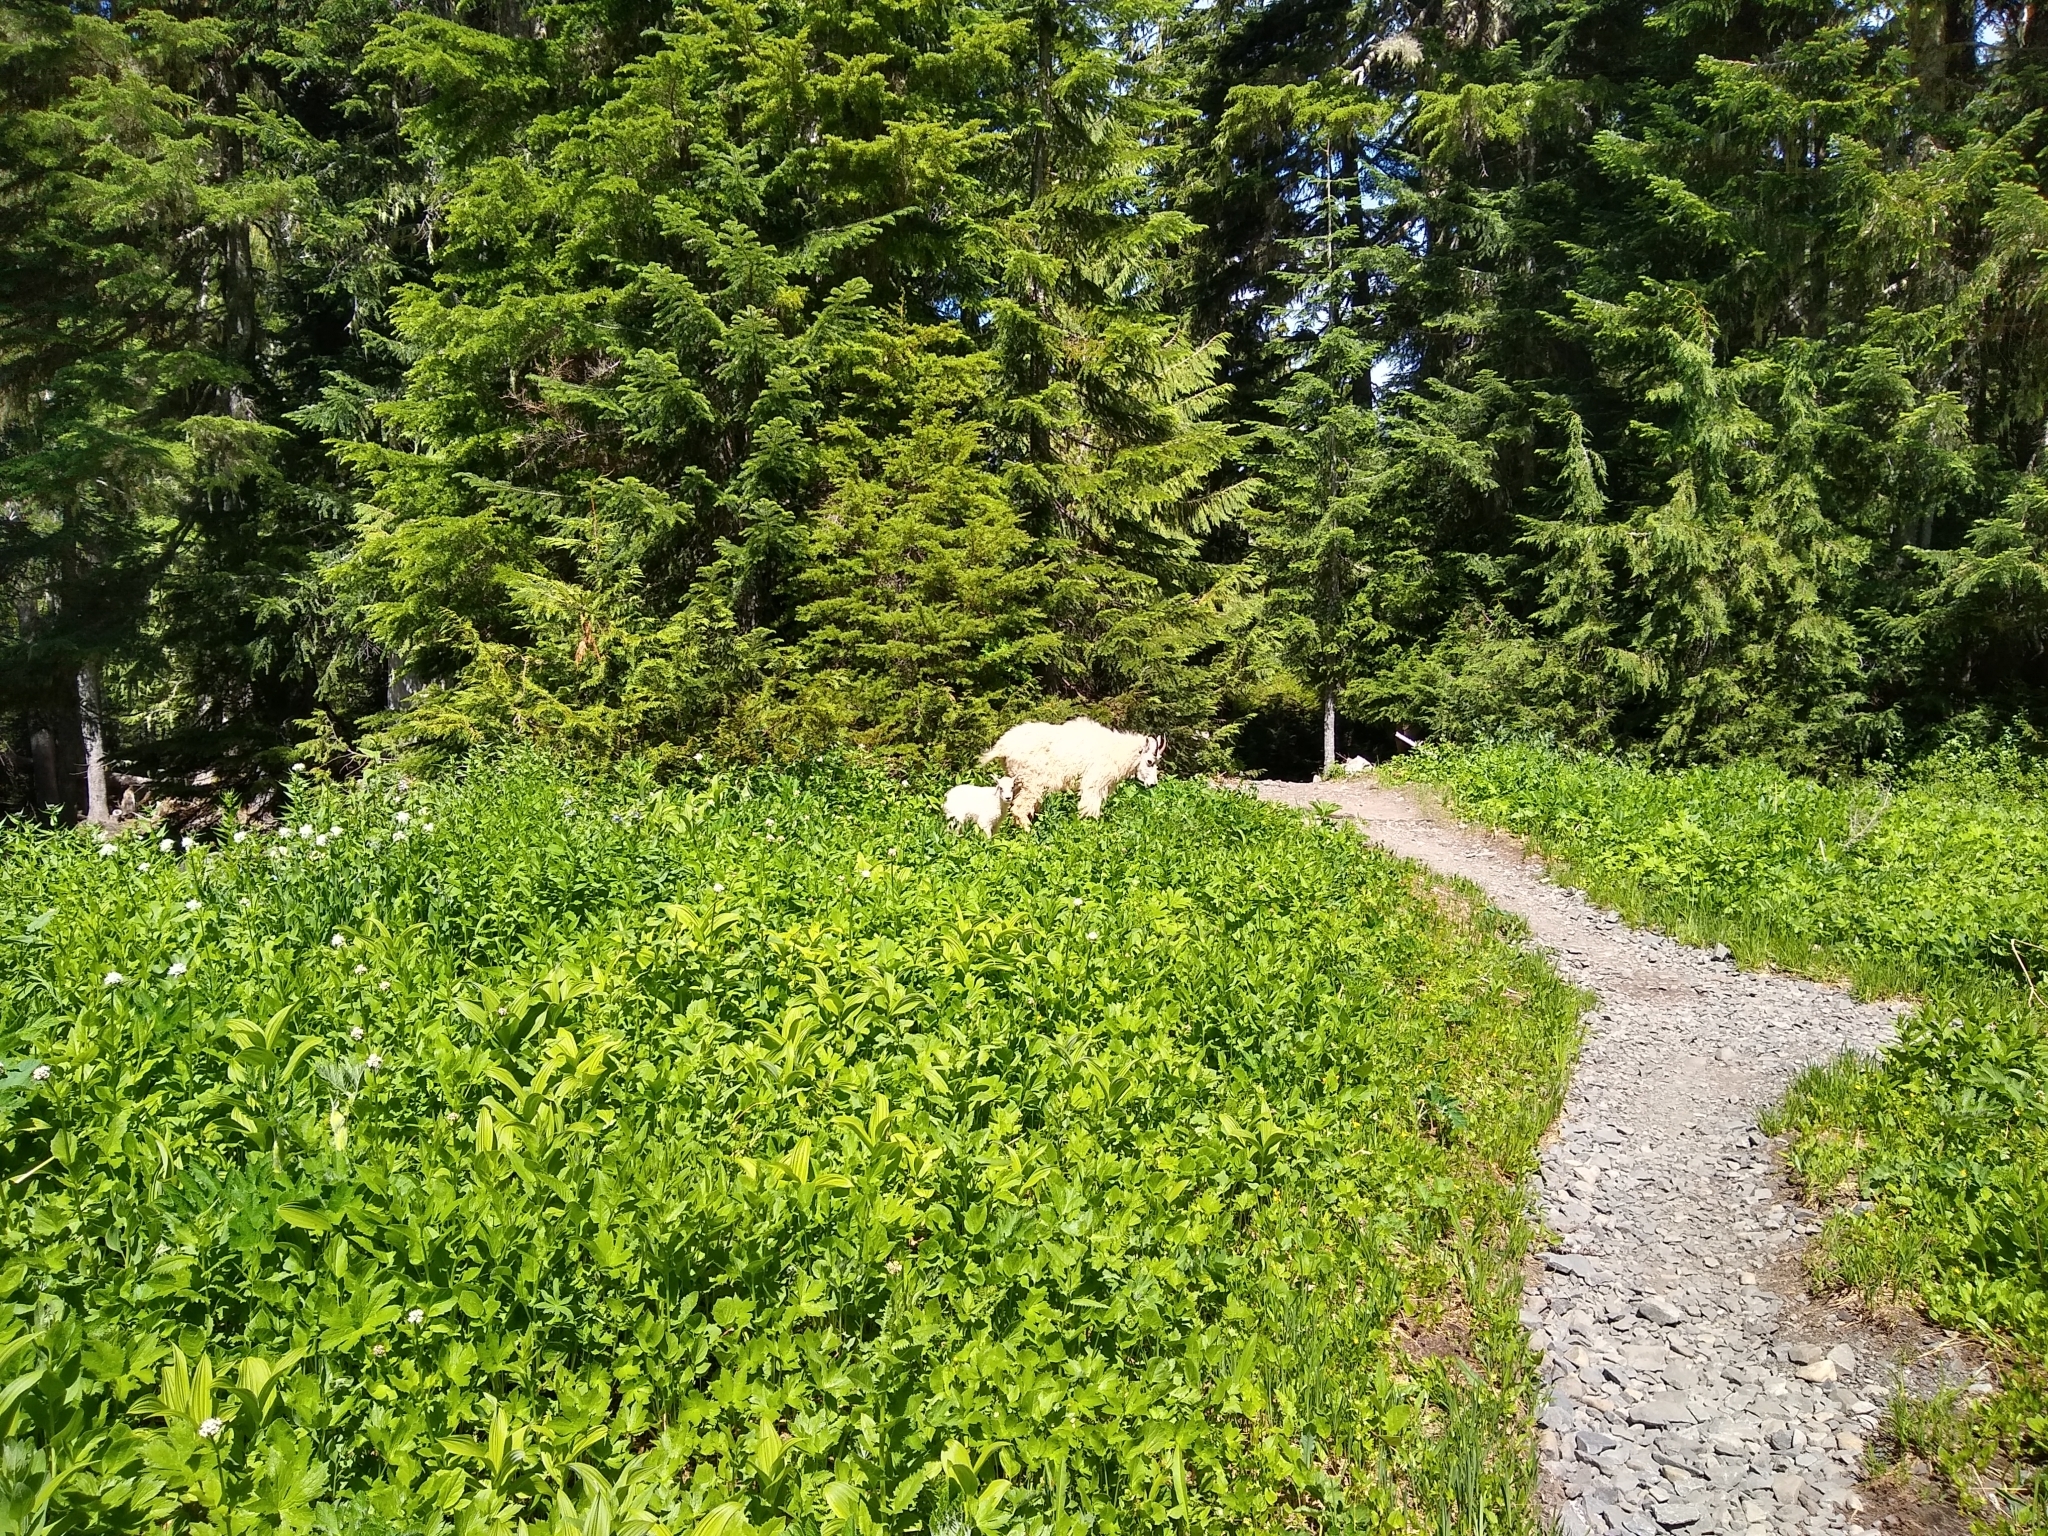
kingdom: Animalia
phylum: Chordata
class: Mammalia
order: Artiodactyla
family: Bovidae
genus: Oreamnos
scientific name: Oreamnos americanus
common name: Mountain goat
